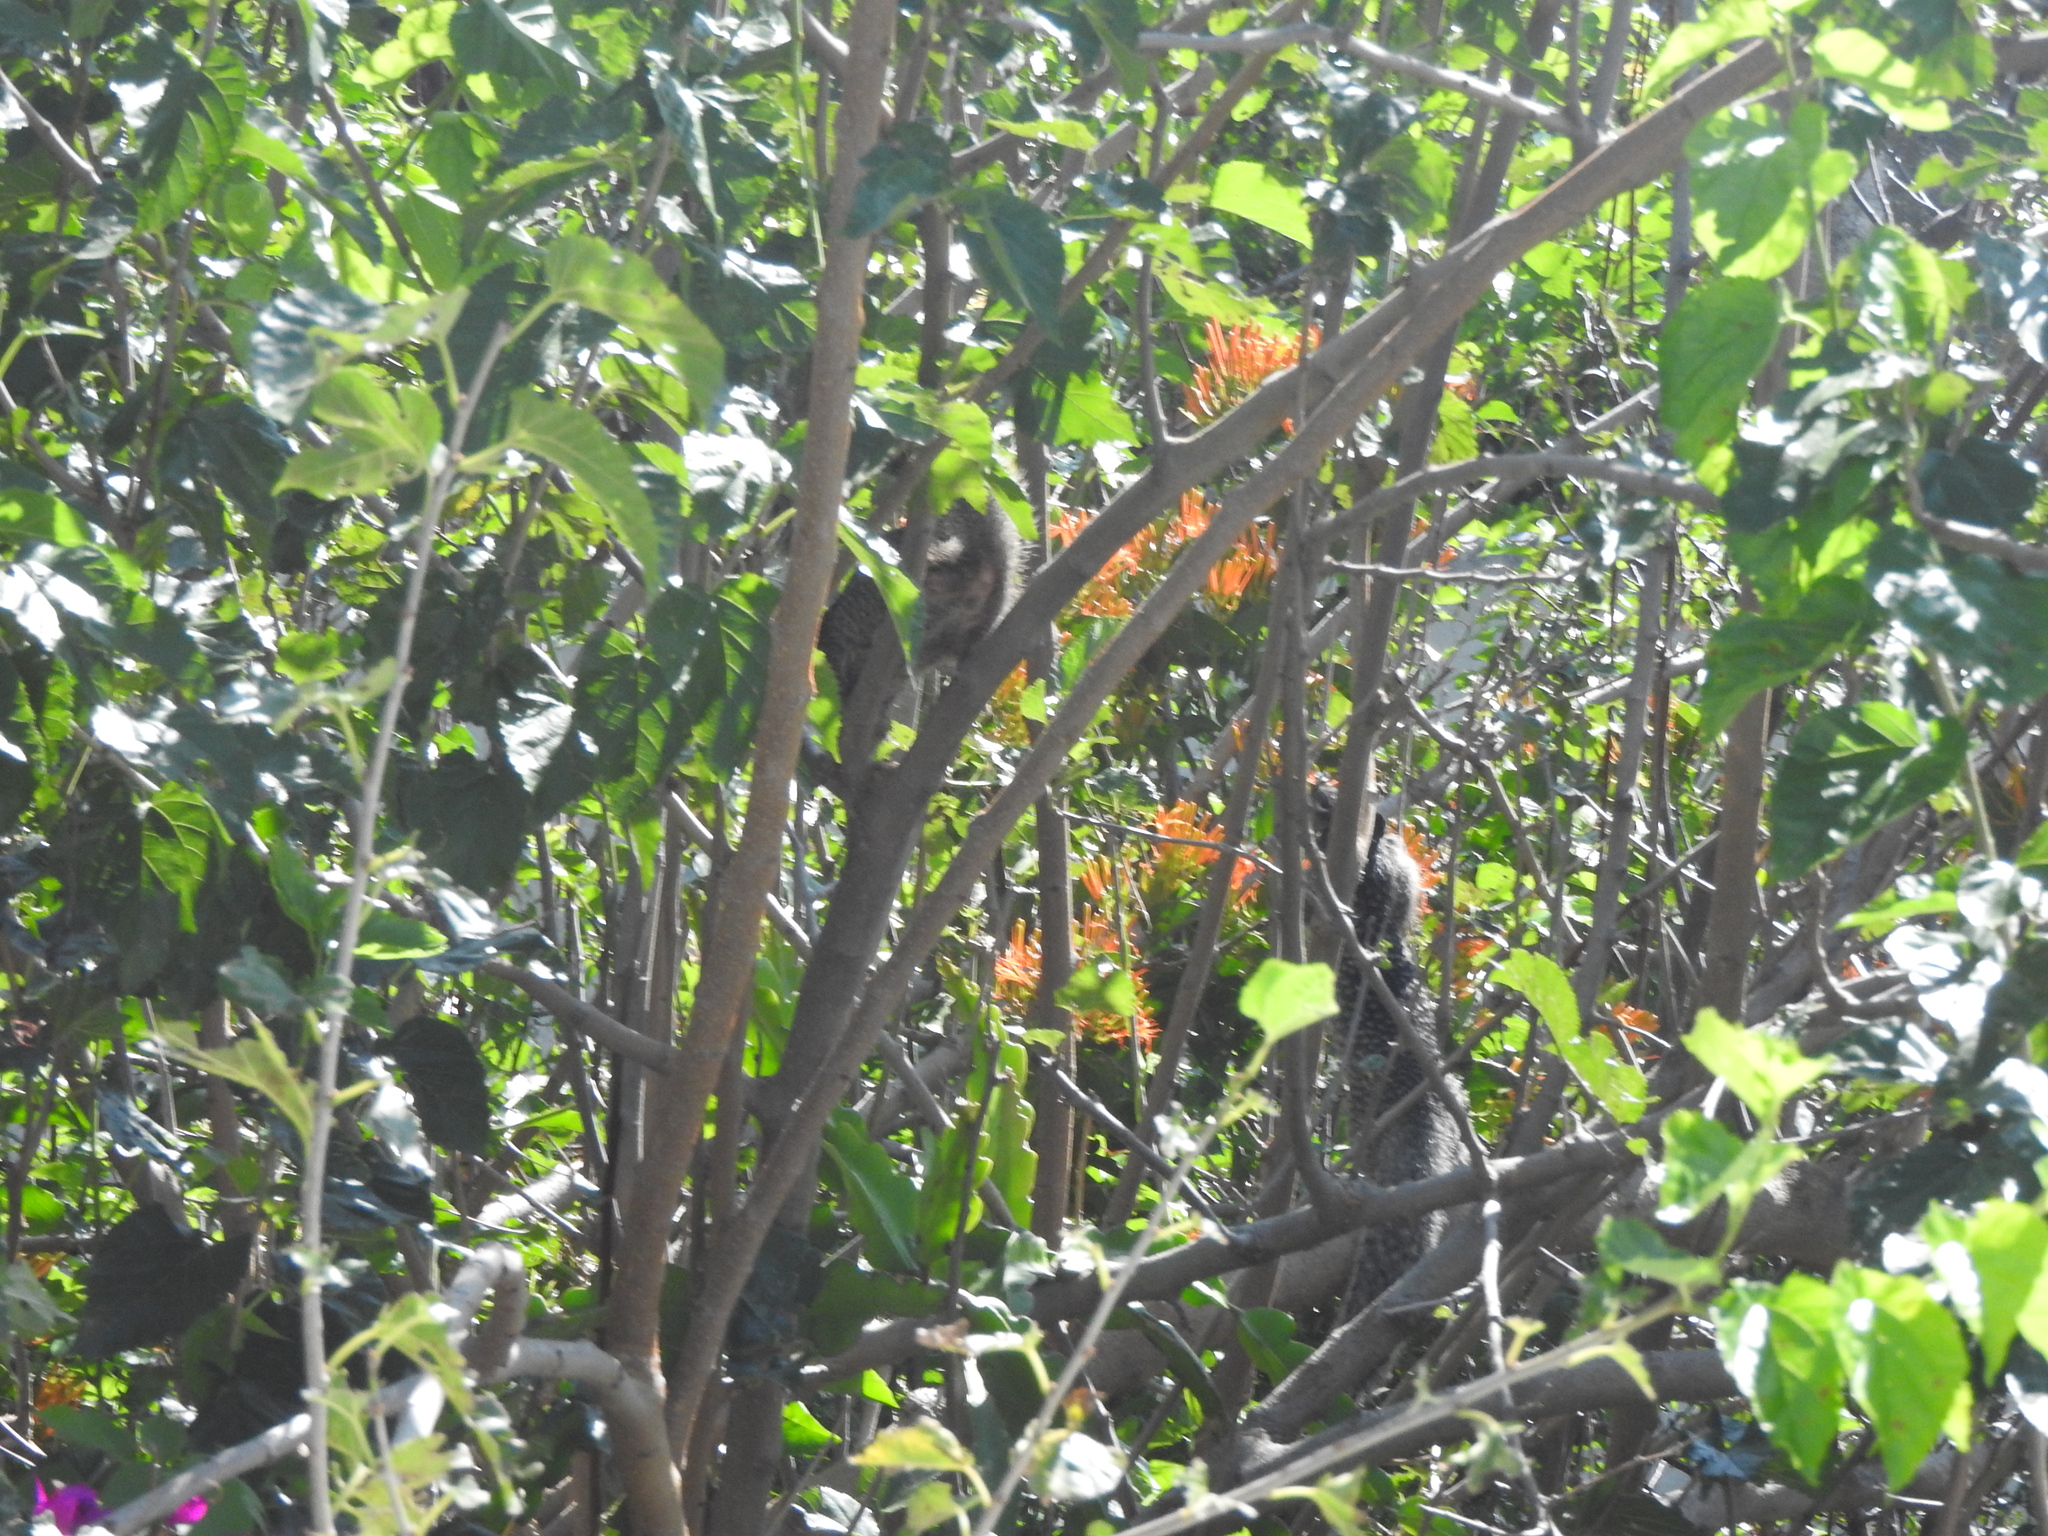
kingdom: Animalia
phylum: Chordata
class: Mammalia
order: Rodentia
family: Sciuridae
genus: Otospermophilus
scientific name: Otospermophilus variegatus
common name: Rock squirrel
